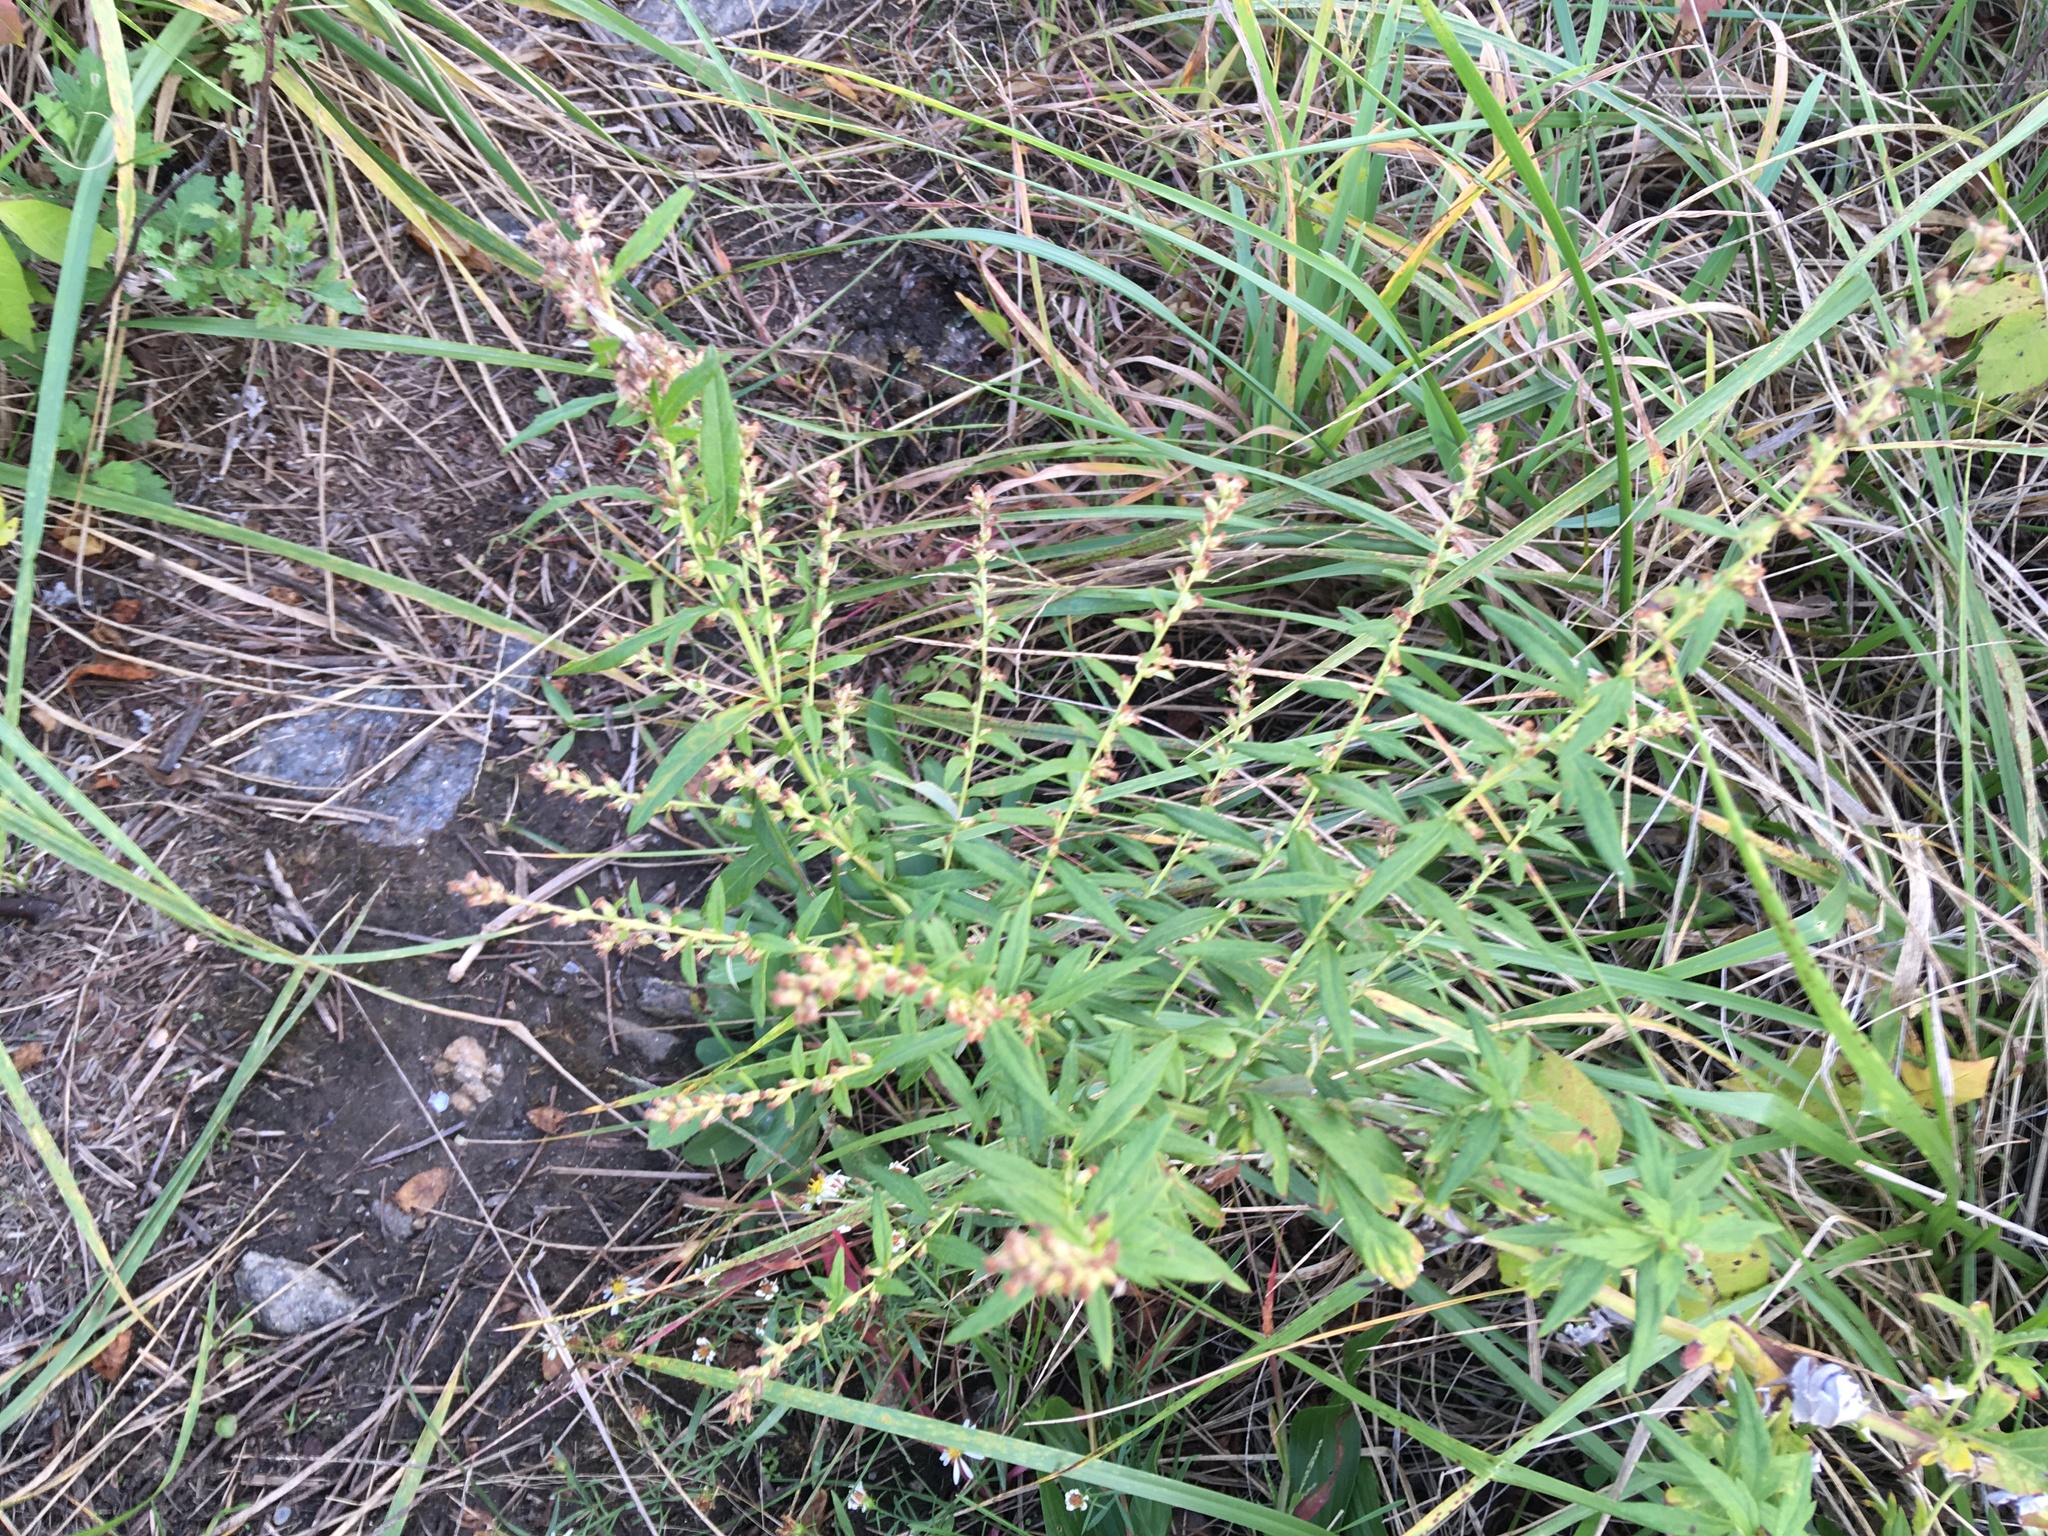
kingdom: Plantae
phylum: Tracheophyta
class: Magnoliopsida
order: Asterales
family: Asteraceae
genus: Artemisia
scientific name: Artemisia vulgaris
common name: Mugwort
